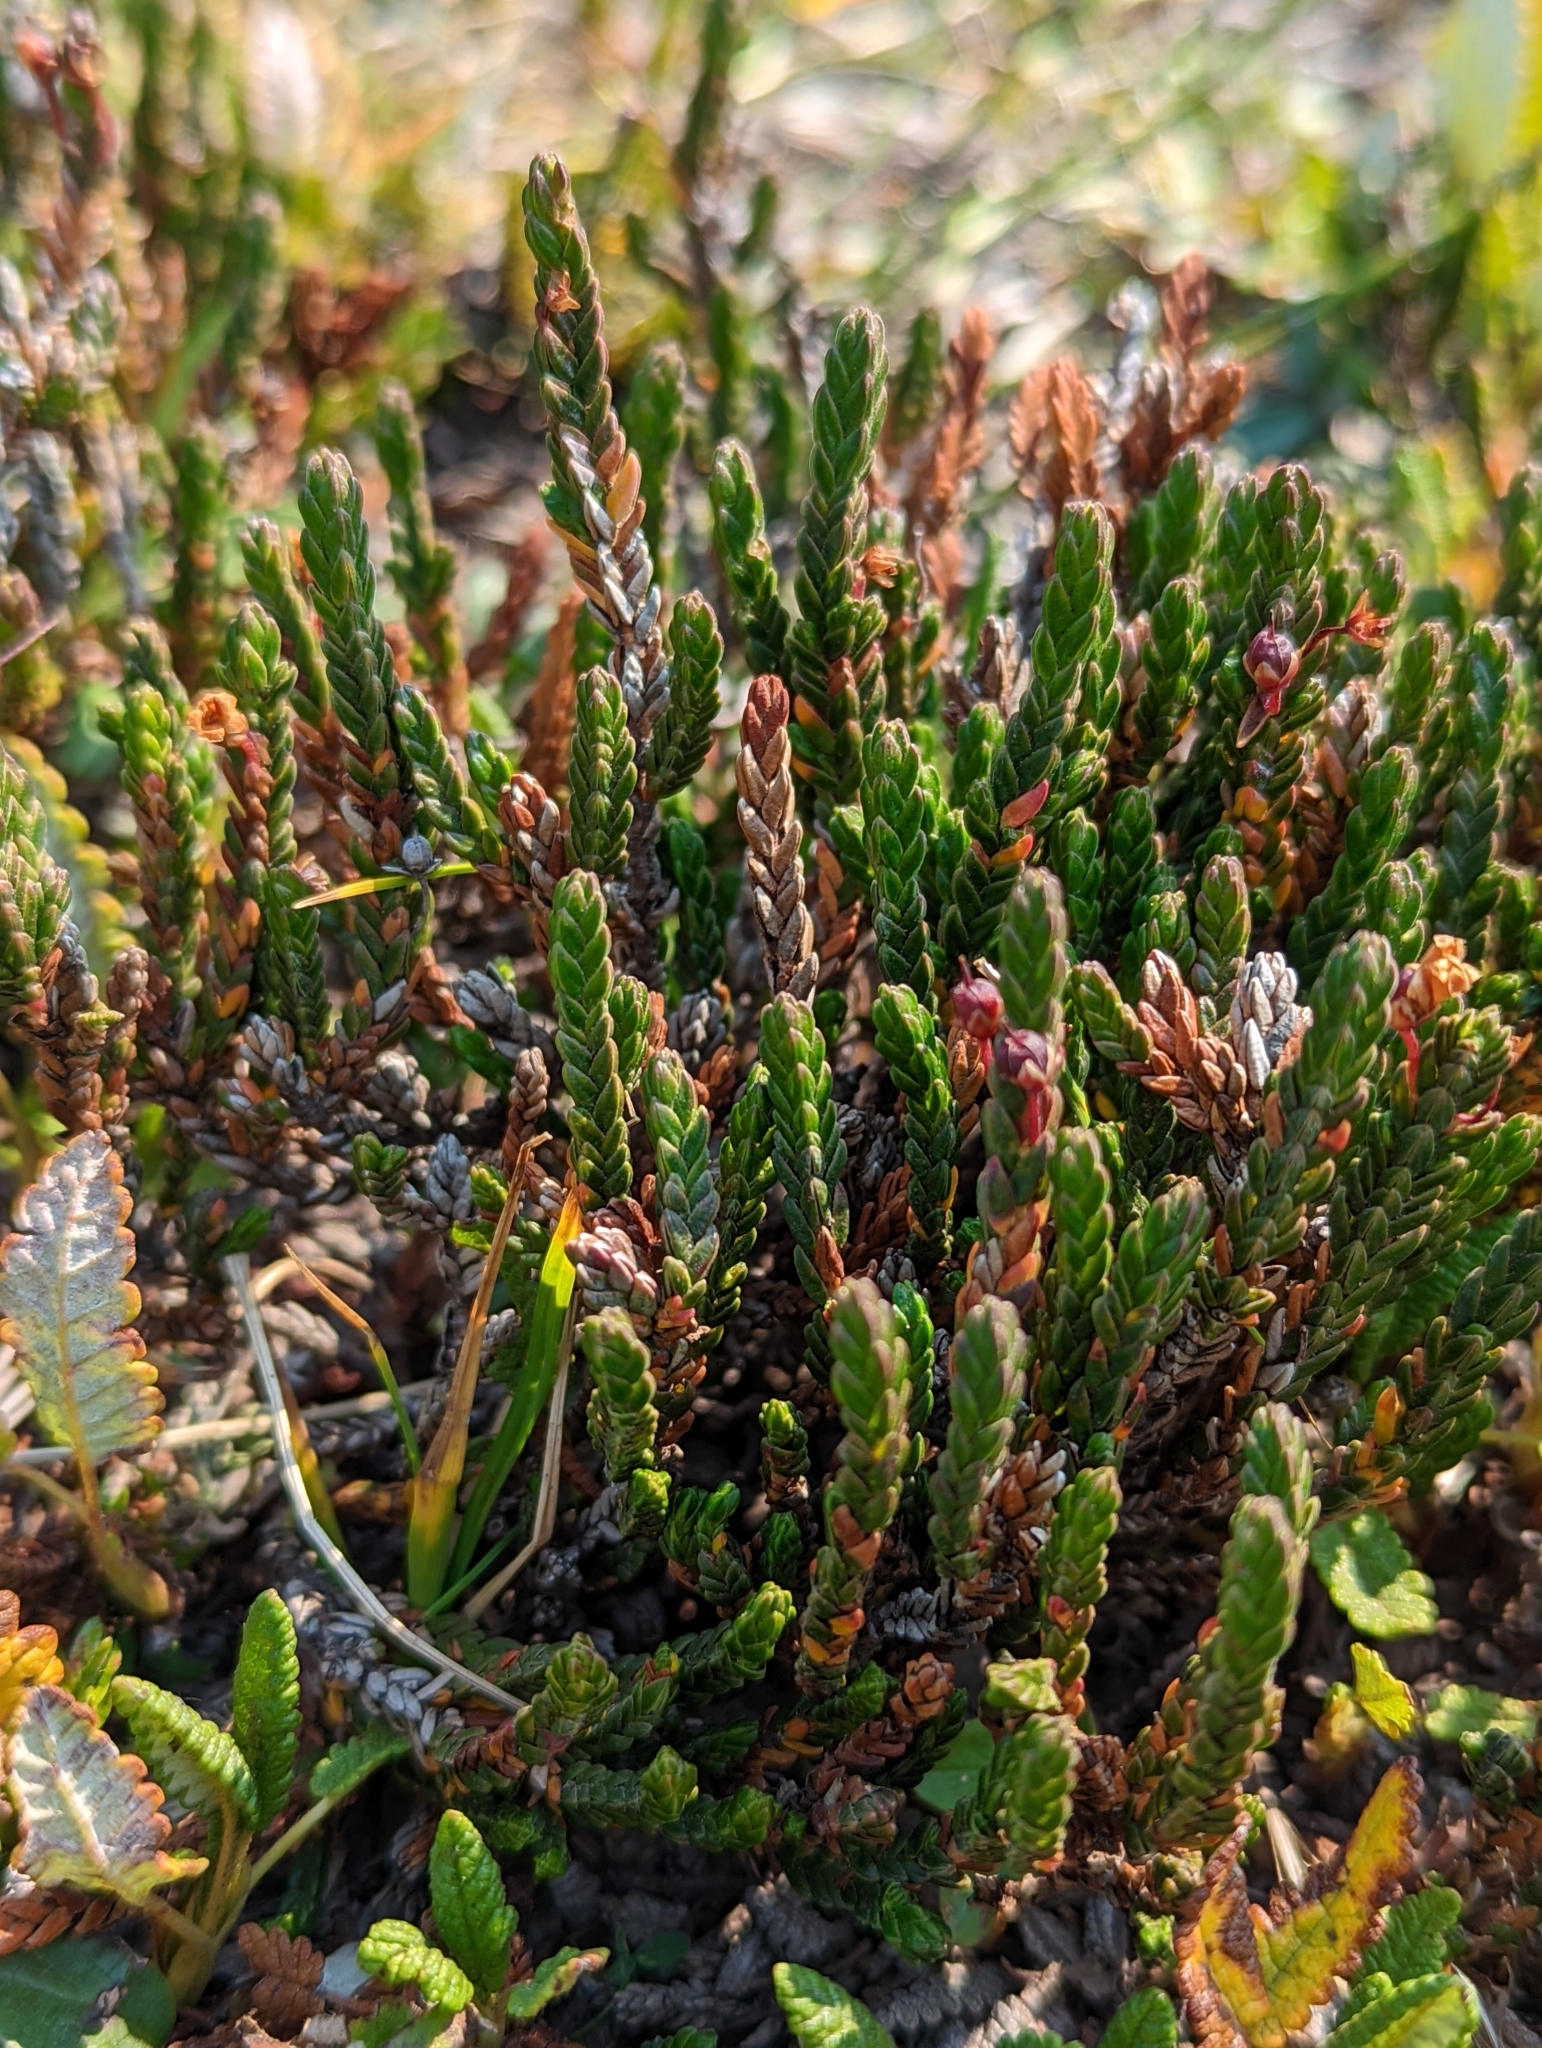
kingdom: Plantae
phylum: Tracheophyta
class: Magnoliopsida
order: Ericales
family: Ericaceae
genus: Cassiope
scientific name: Cassiope tetragona
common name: Arctic bell heather
